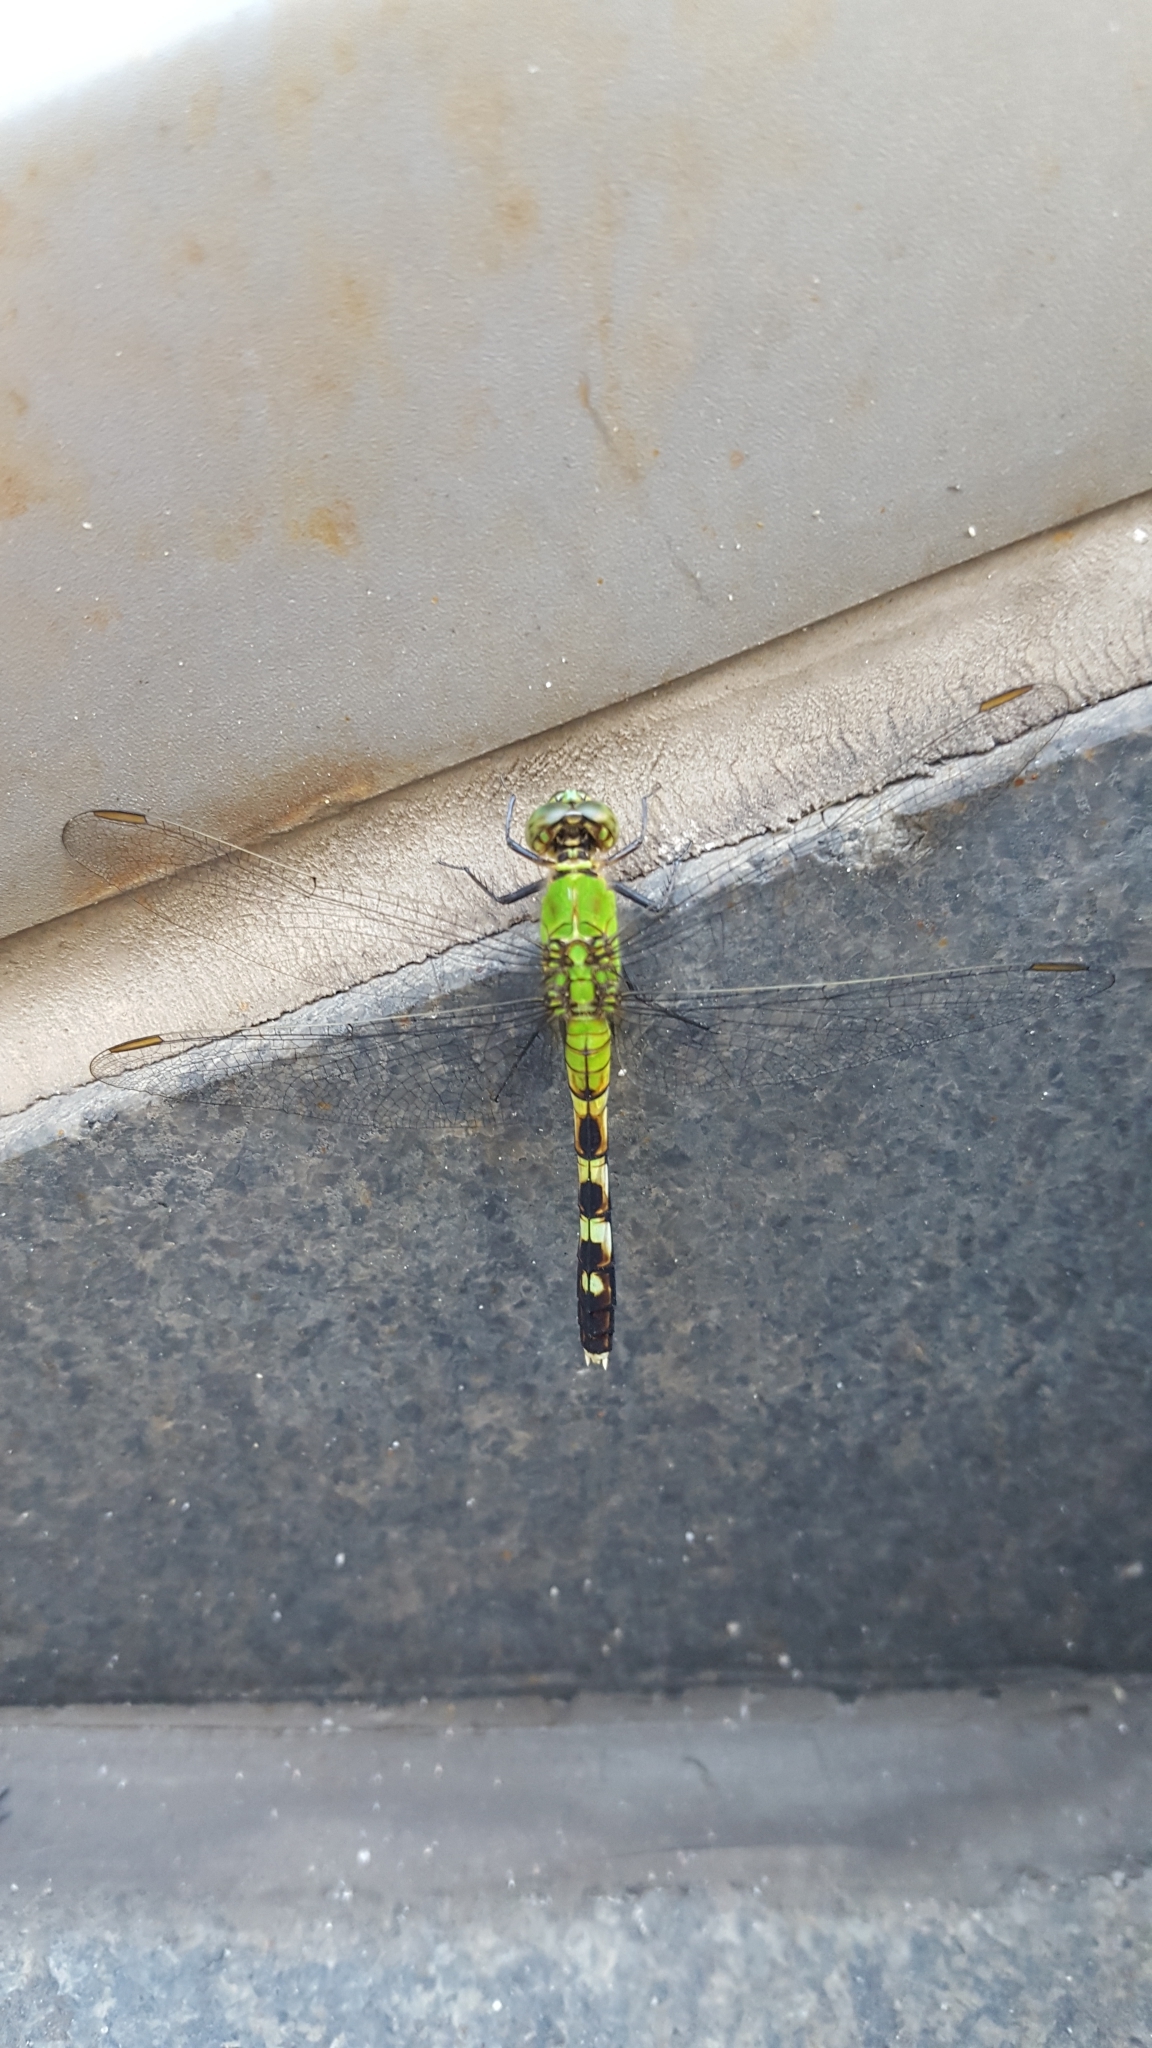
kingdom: Animalia
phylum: Arthropoda
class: Insecta
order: Odonata
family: Libellulidae
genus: Erythemis
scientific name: Erythemis simplicicollis
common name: Eastern pondhawk
